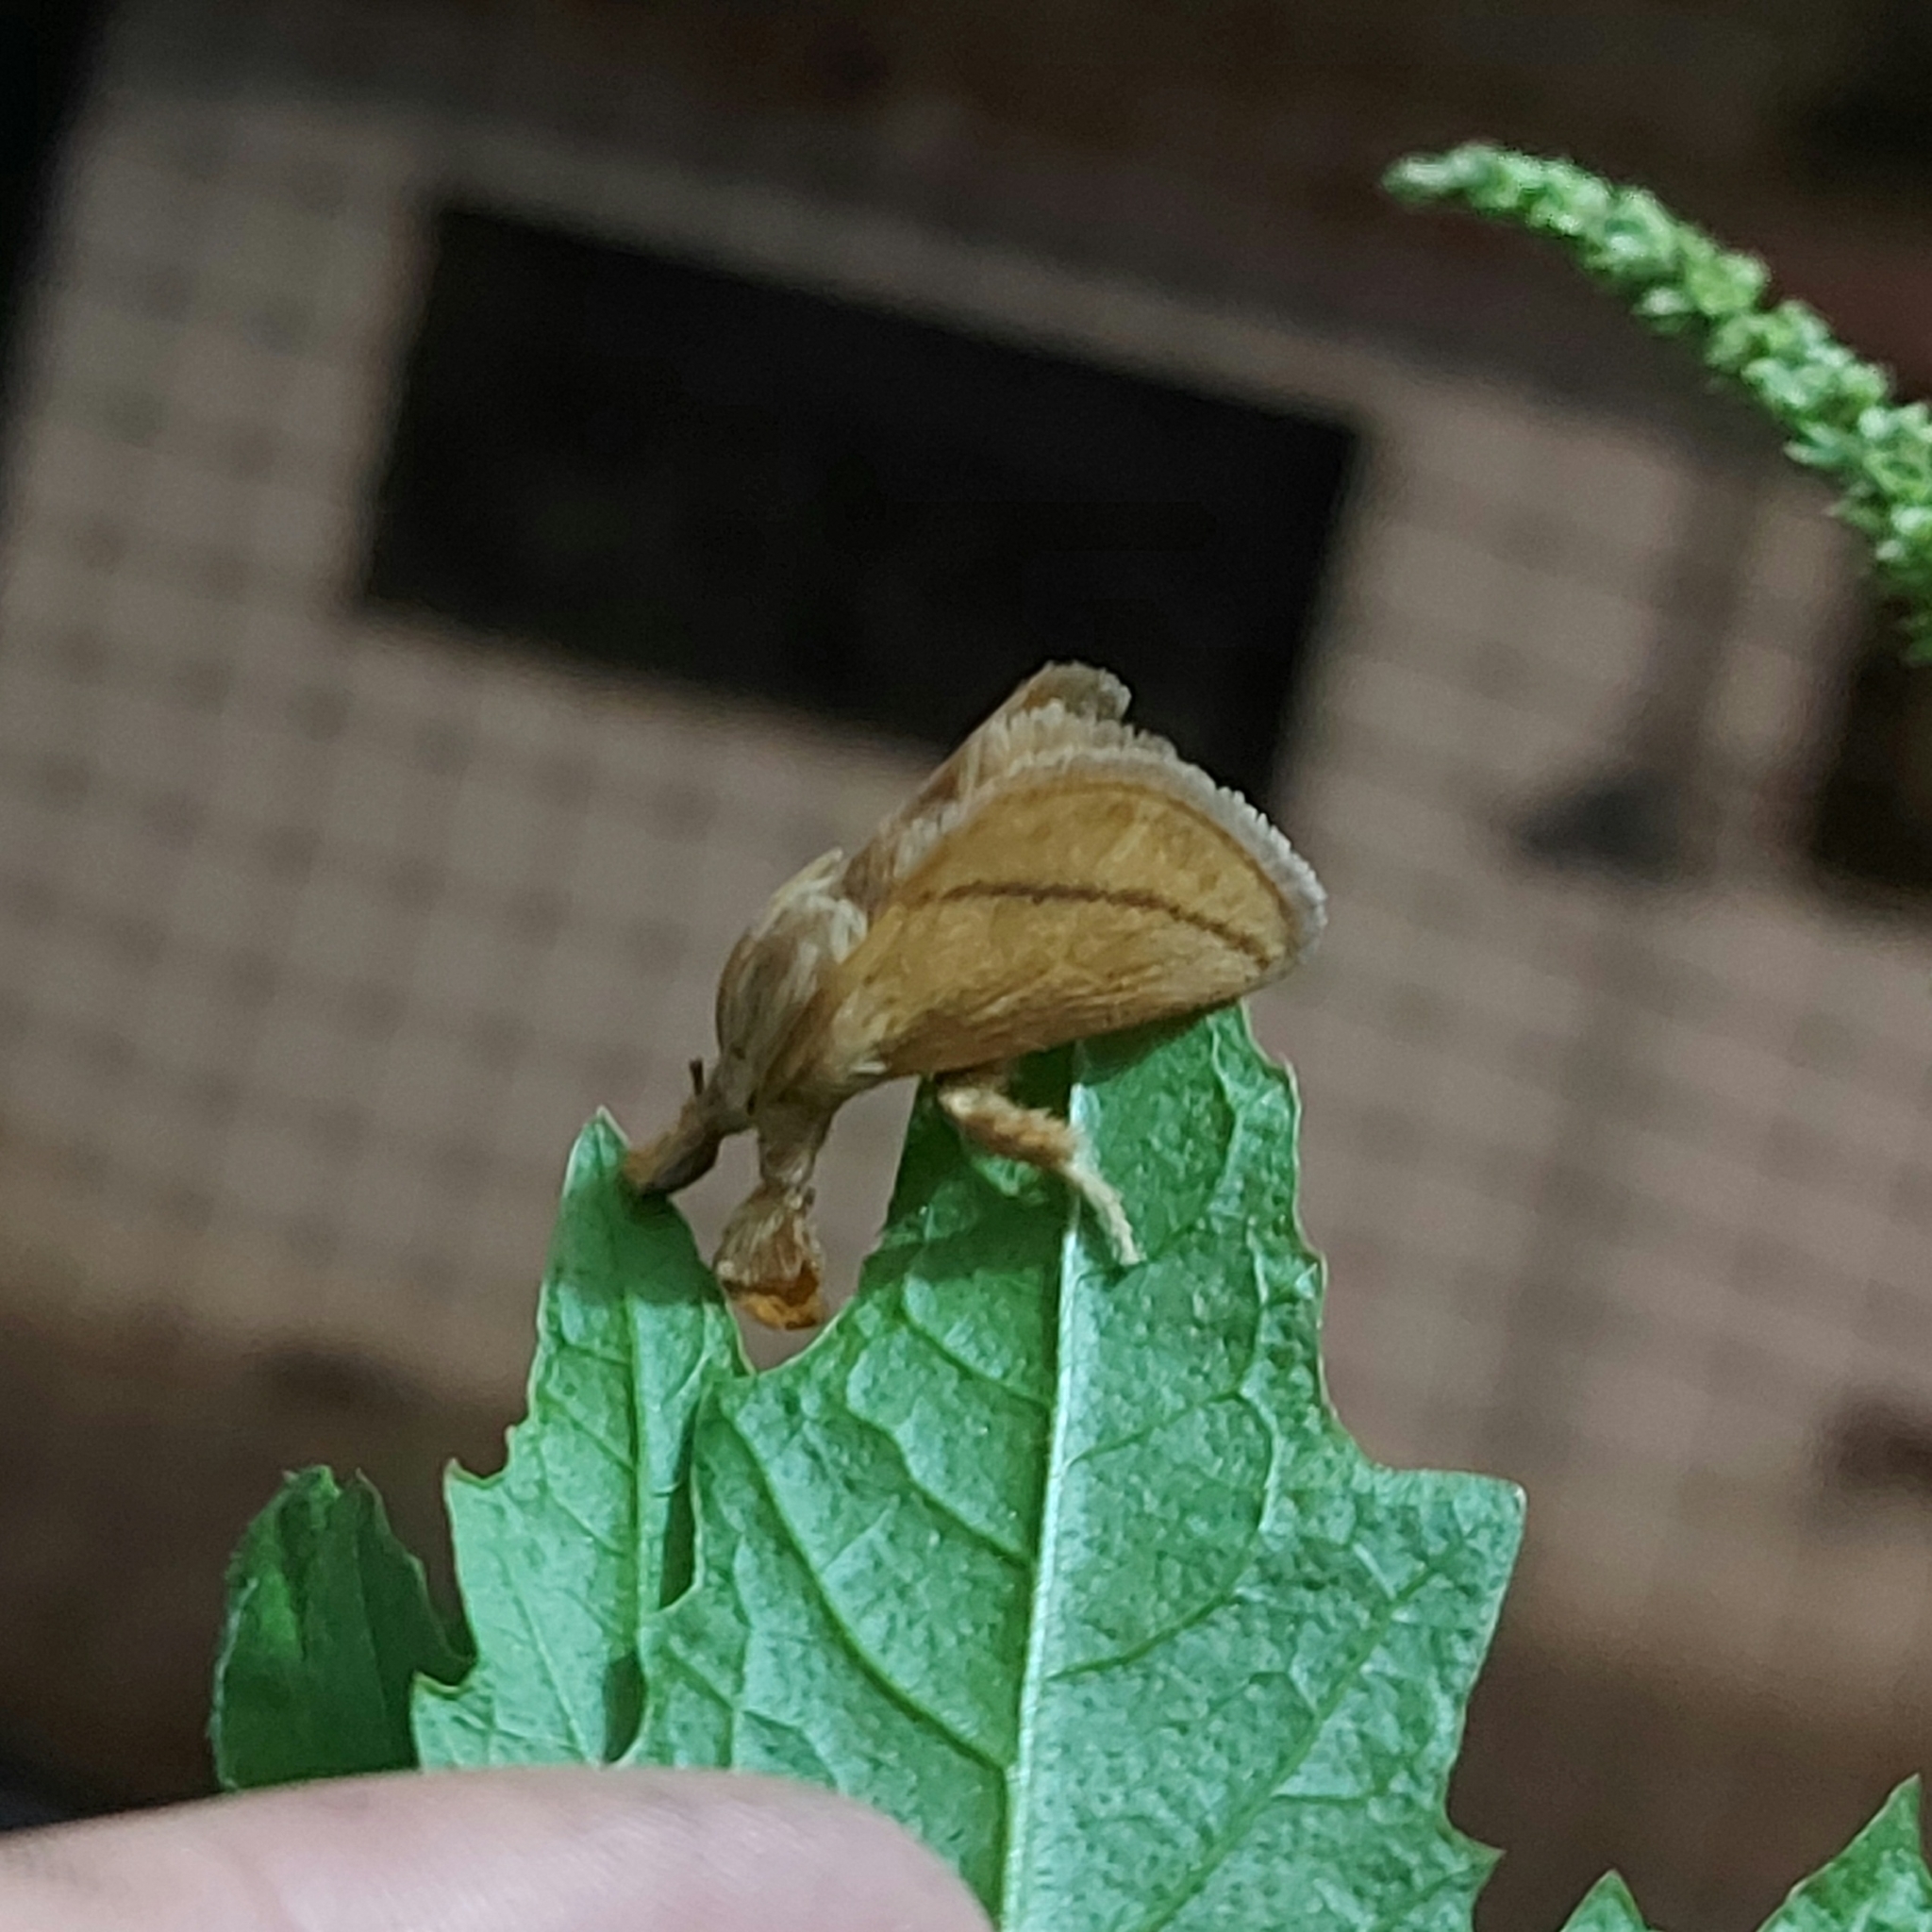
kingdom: Animalia
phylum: Arthropoda
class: Insecta
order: Lepidoptera
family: Limacodidae
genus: Epiperola
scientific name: Epiperola drucei
